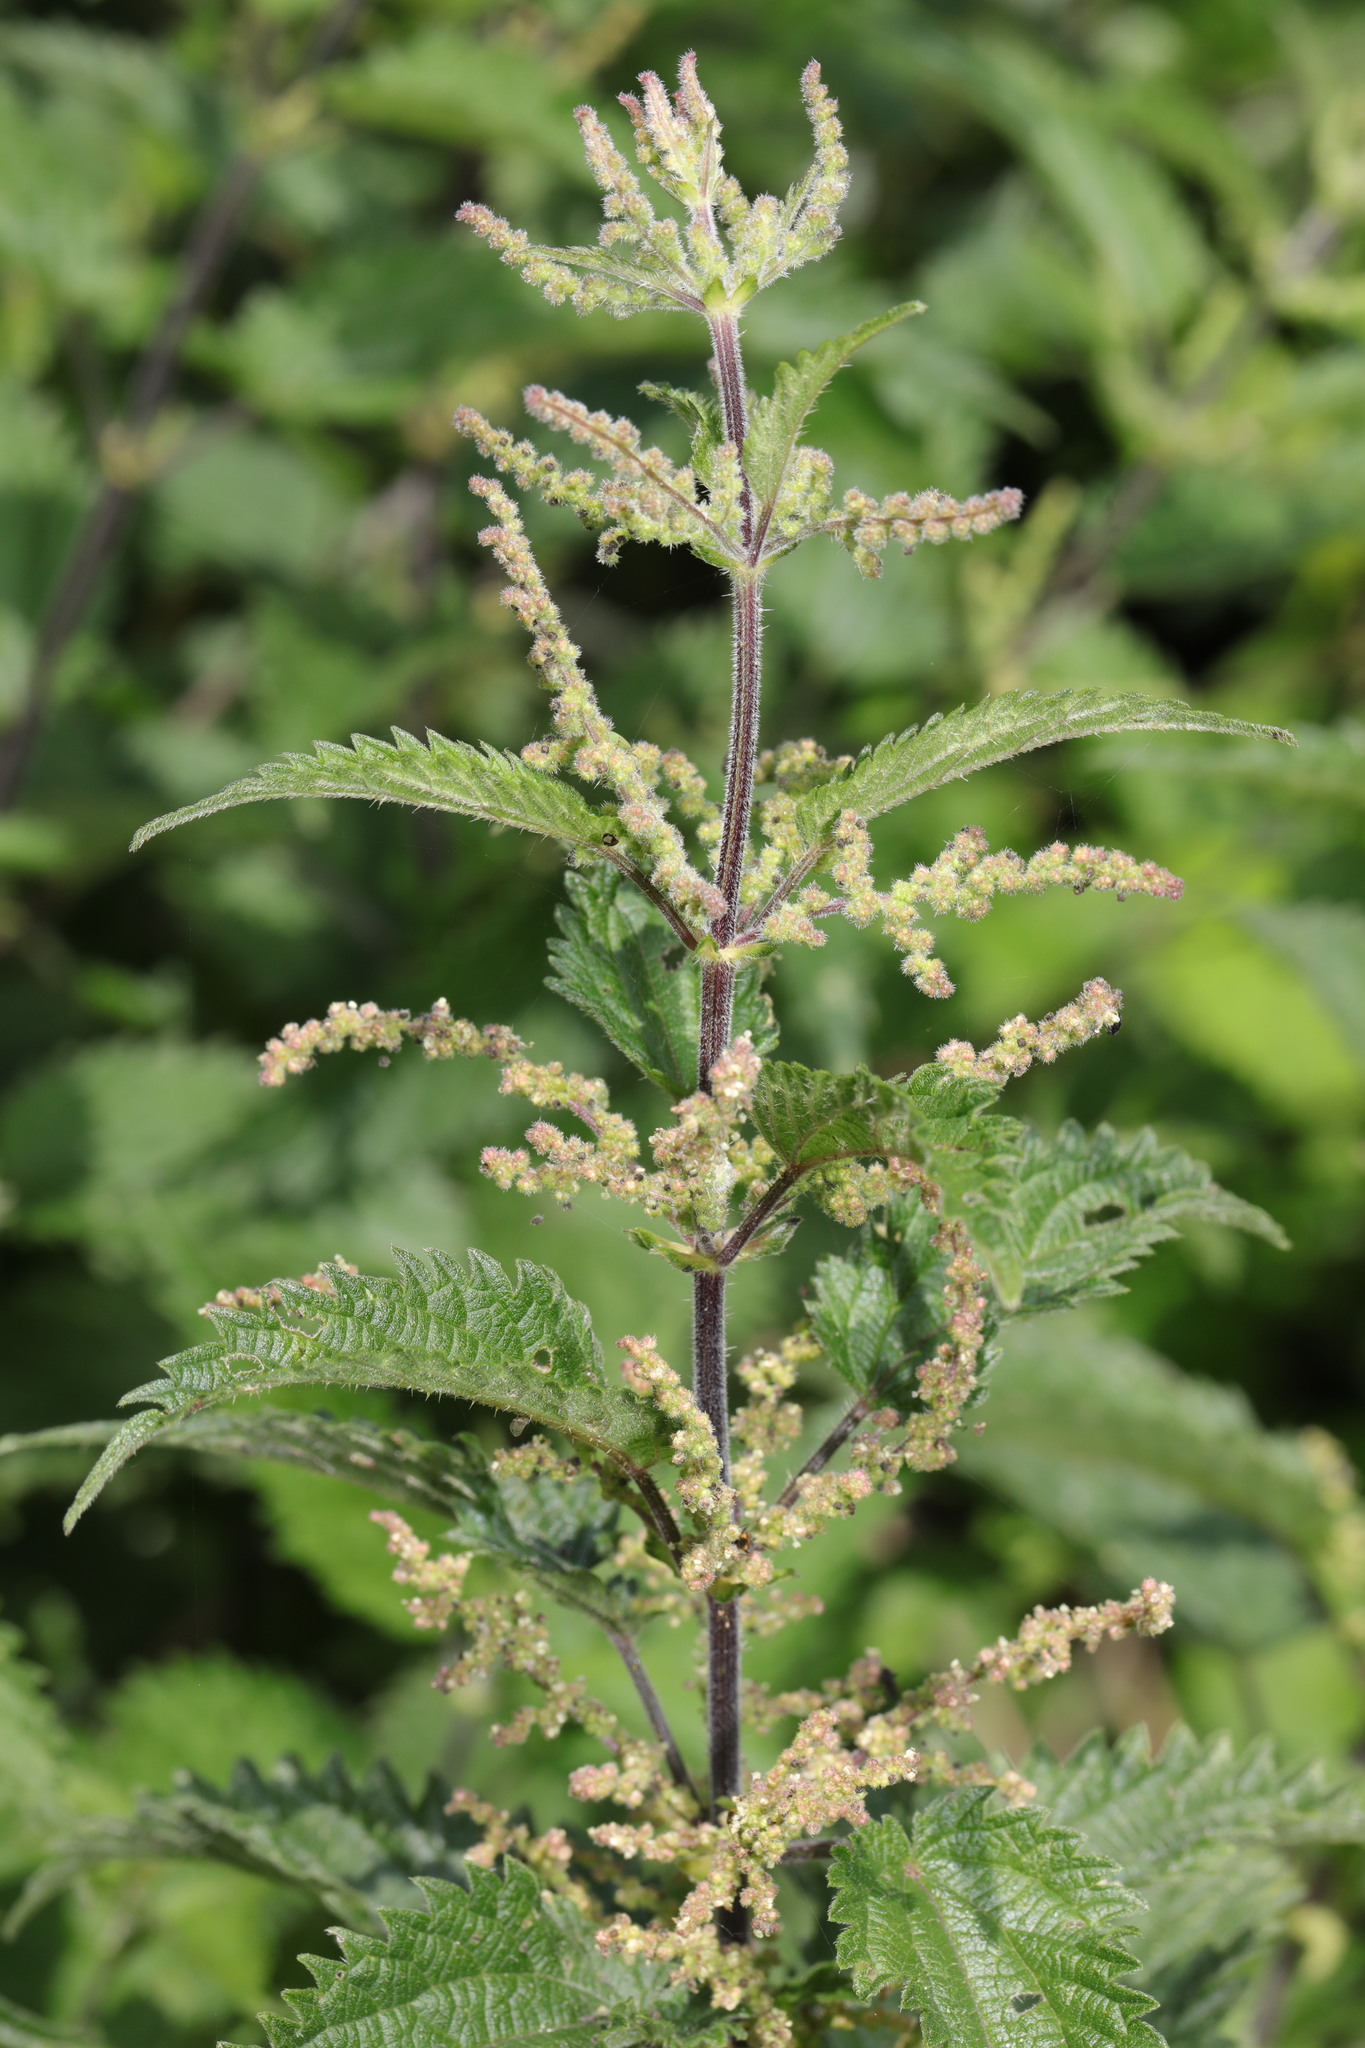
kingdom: Plantae
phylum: Tracheophyta
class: Magnoliopsida
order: Rosales
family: Urticaceae
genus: Urtica
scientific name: Urtica dioica
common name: Common nettle
